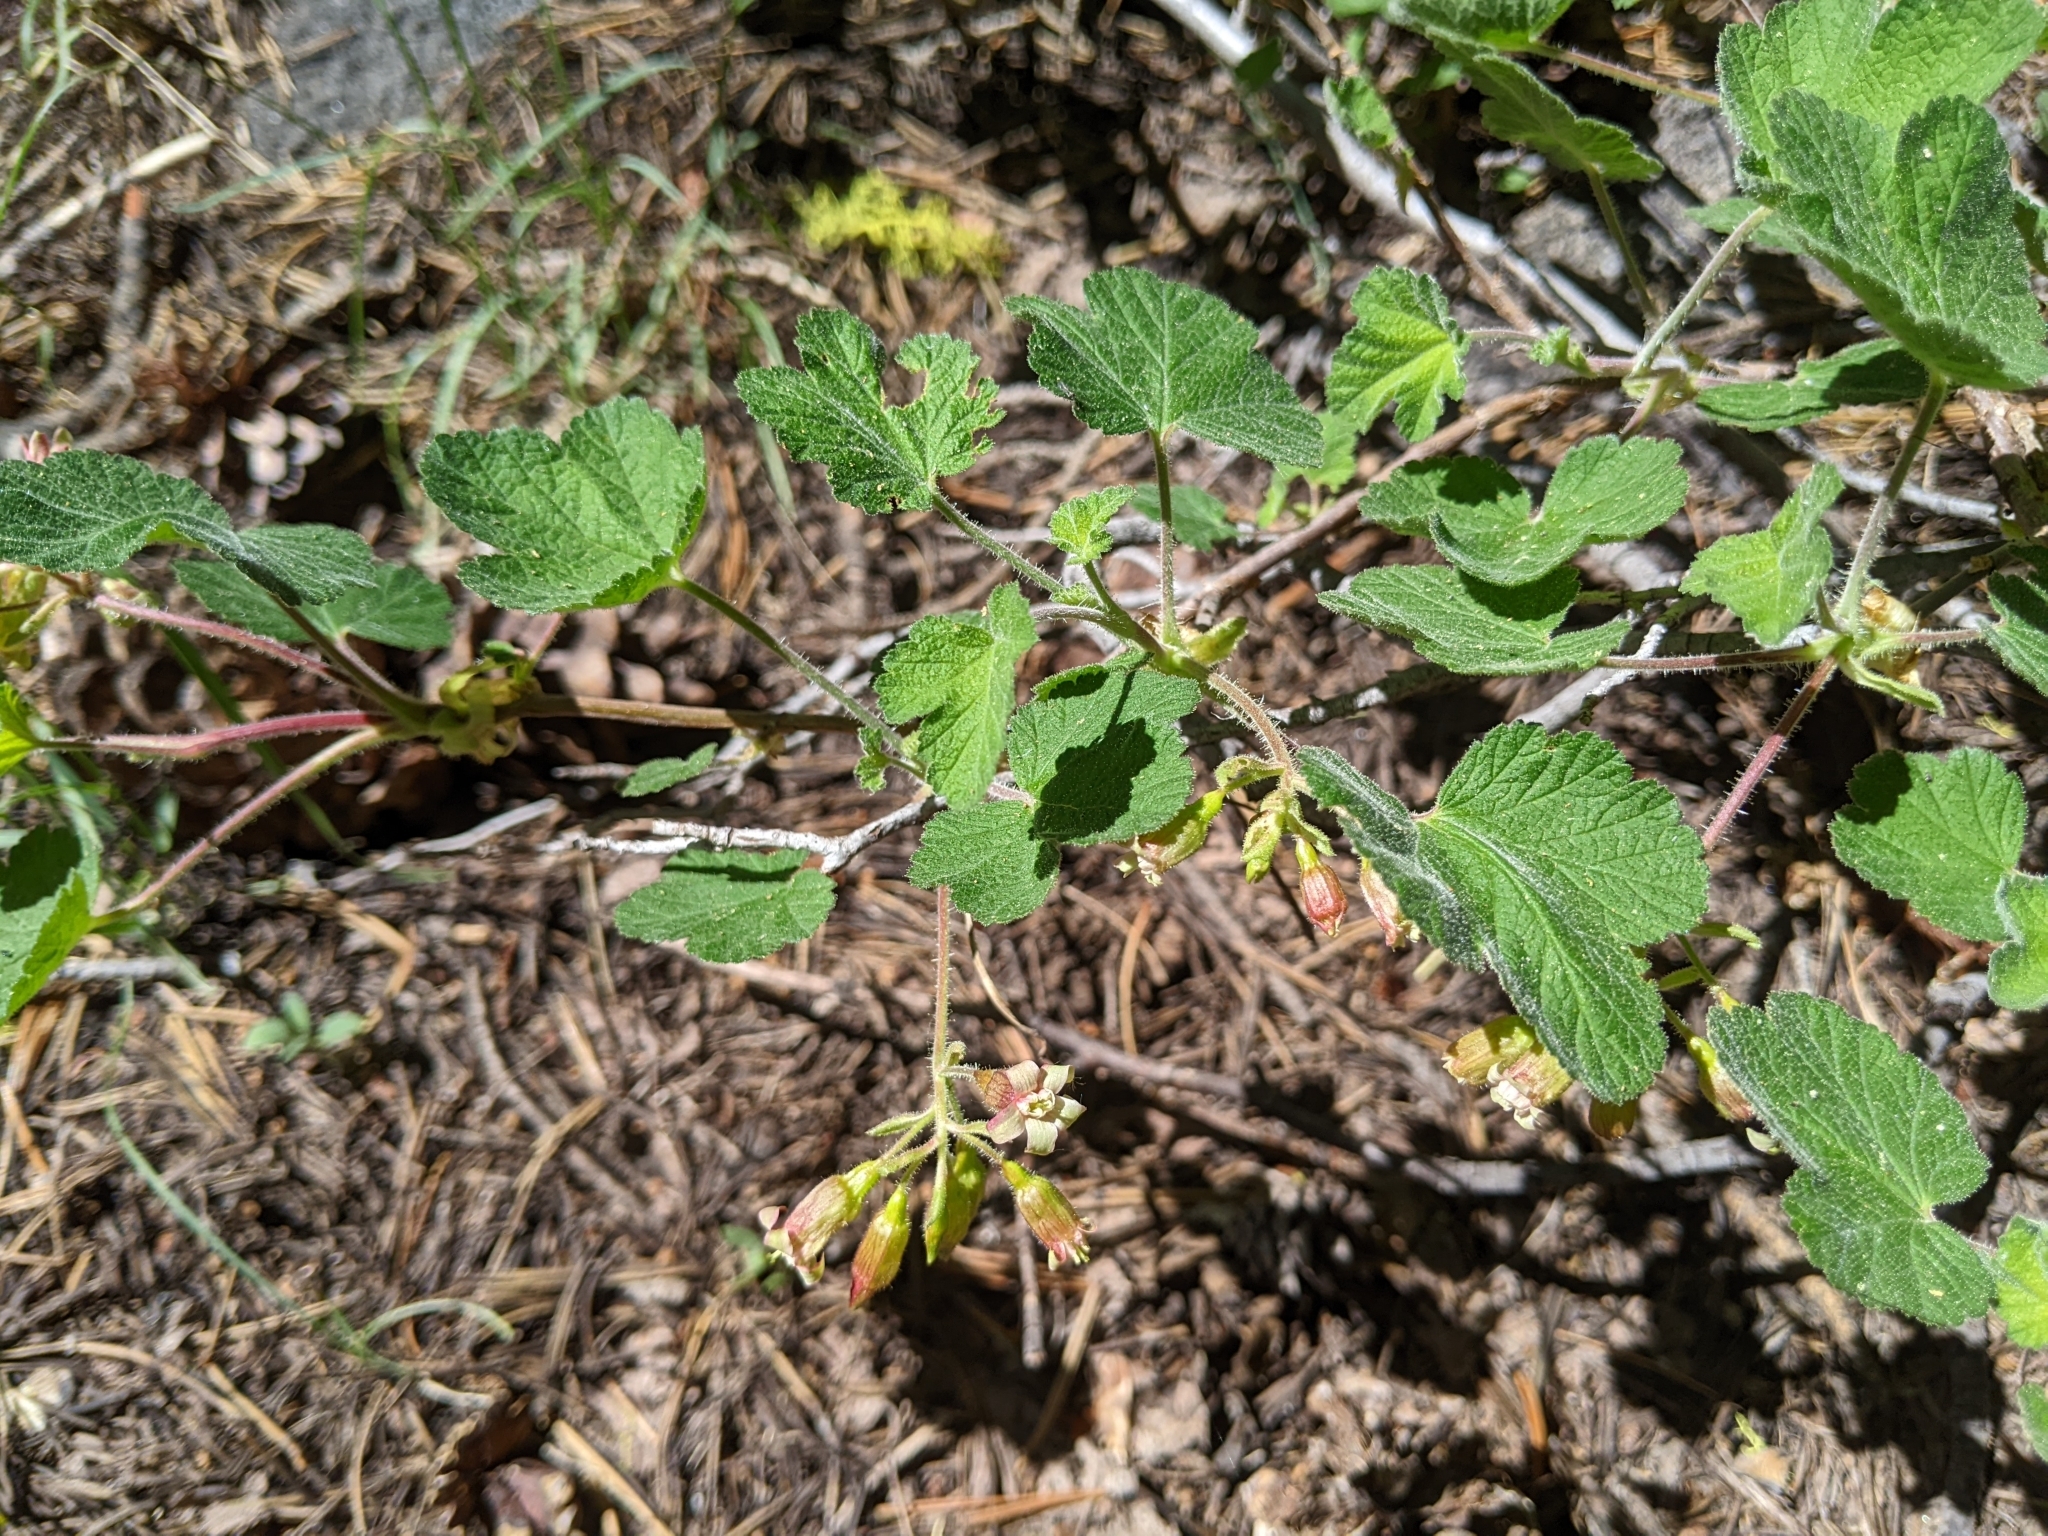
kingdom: Plantae
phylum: Tracheophyta
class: Magnoliopsida
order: Saxifragales
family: Grossulariaceae
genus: Ribes
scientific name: Ribes viscosissimum
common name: Sticky currant
